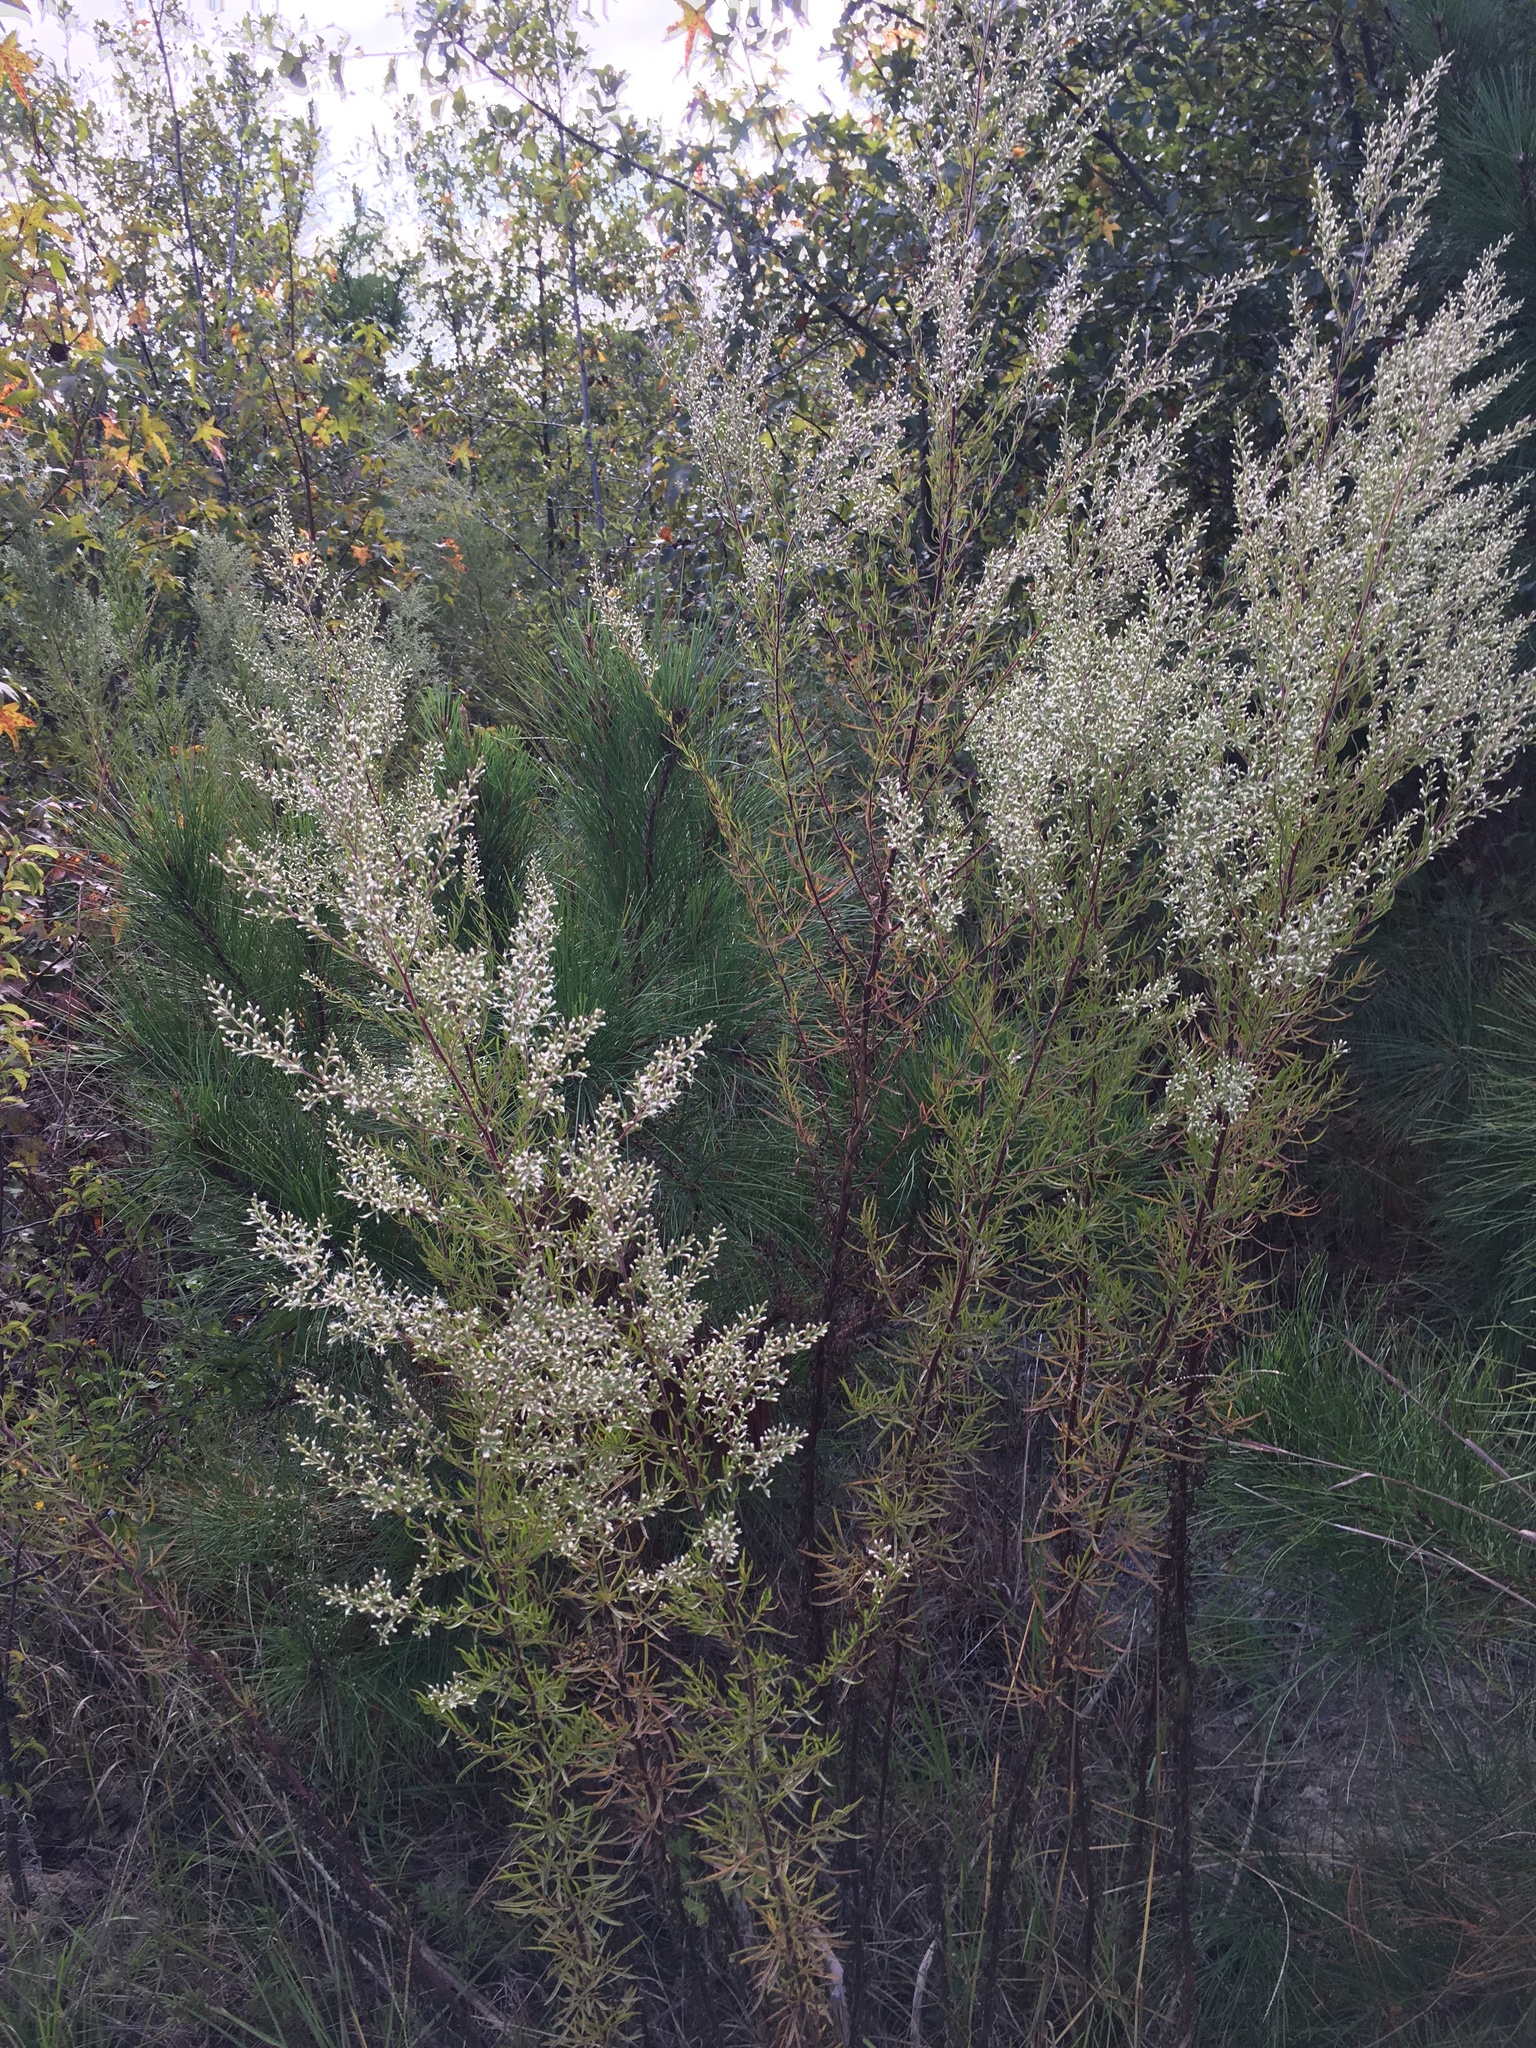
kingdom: Plantae
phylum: Tracheophyta
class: Magnoliopsida
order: Asterales
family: Asteraceae
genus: Eupatorium
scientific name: Eupatorium compositifolium
